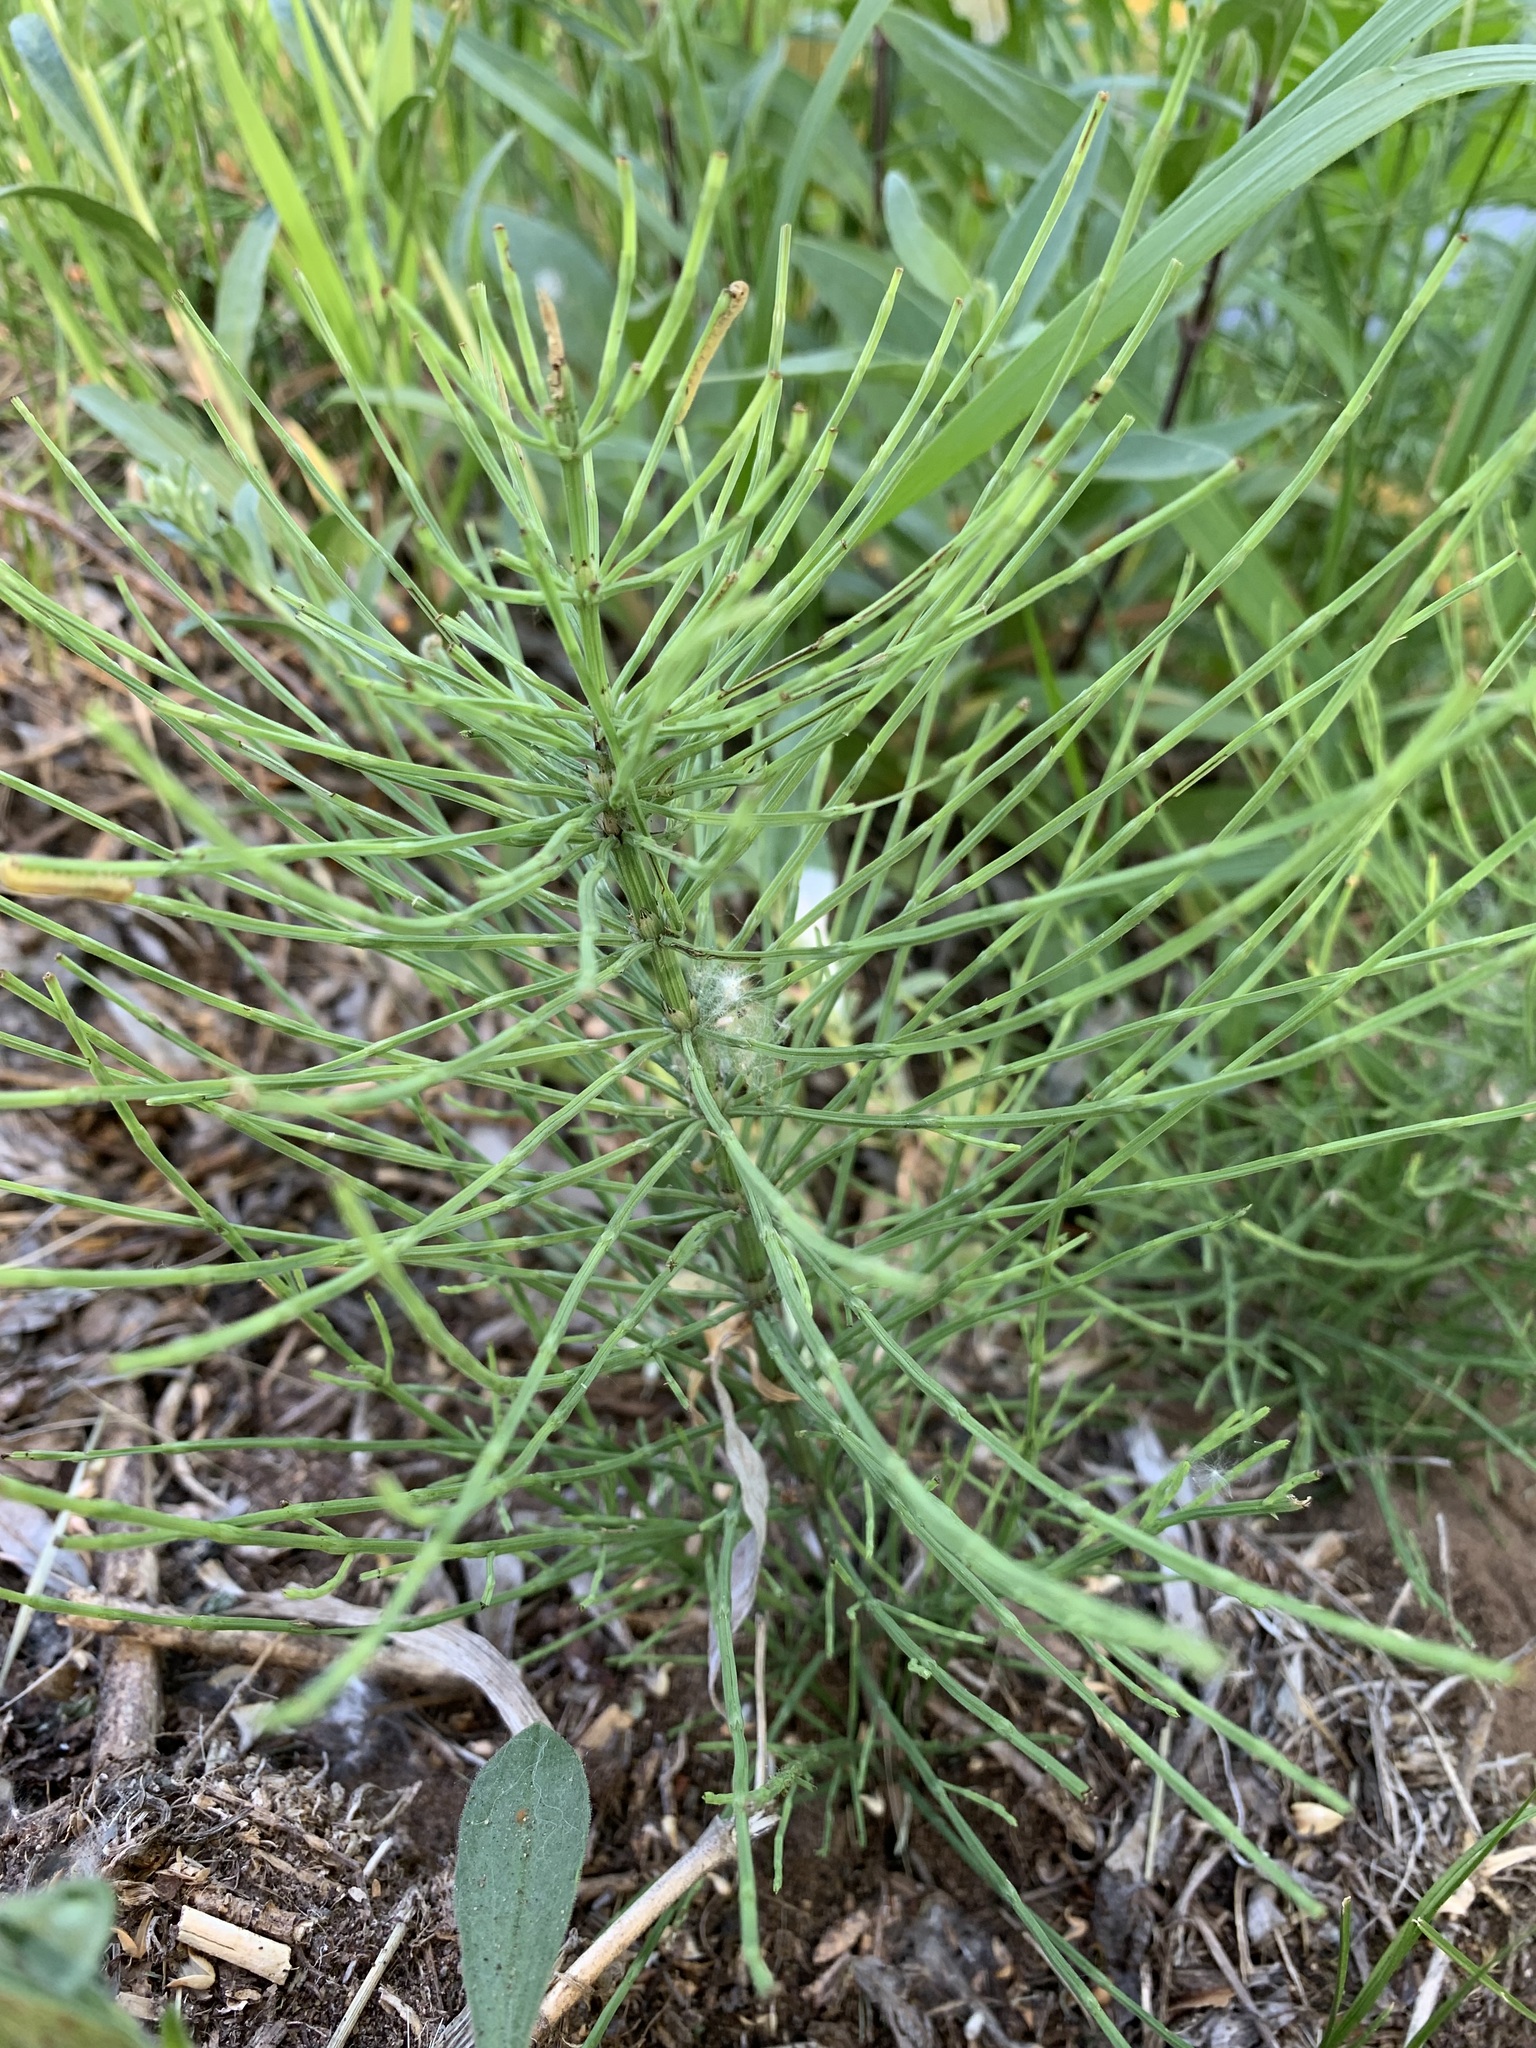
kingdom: Plantae
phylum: Tracheophyta
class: Polypodiopsida
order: Equisetales
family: Equisetaceae
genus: Equisetum
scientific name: Equisetum arvense
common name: Field horsetail
